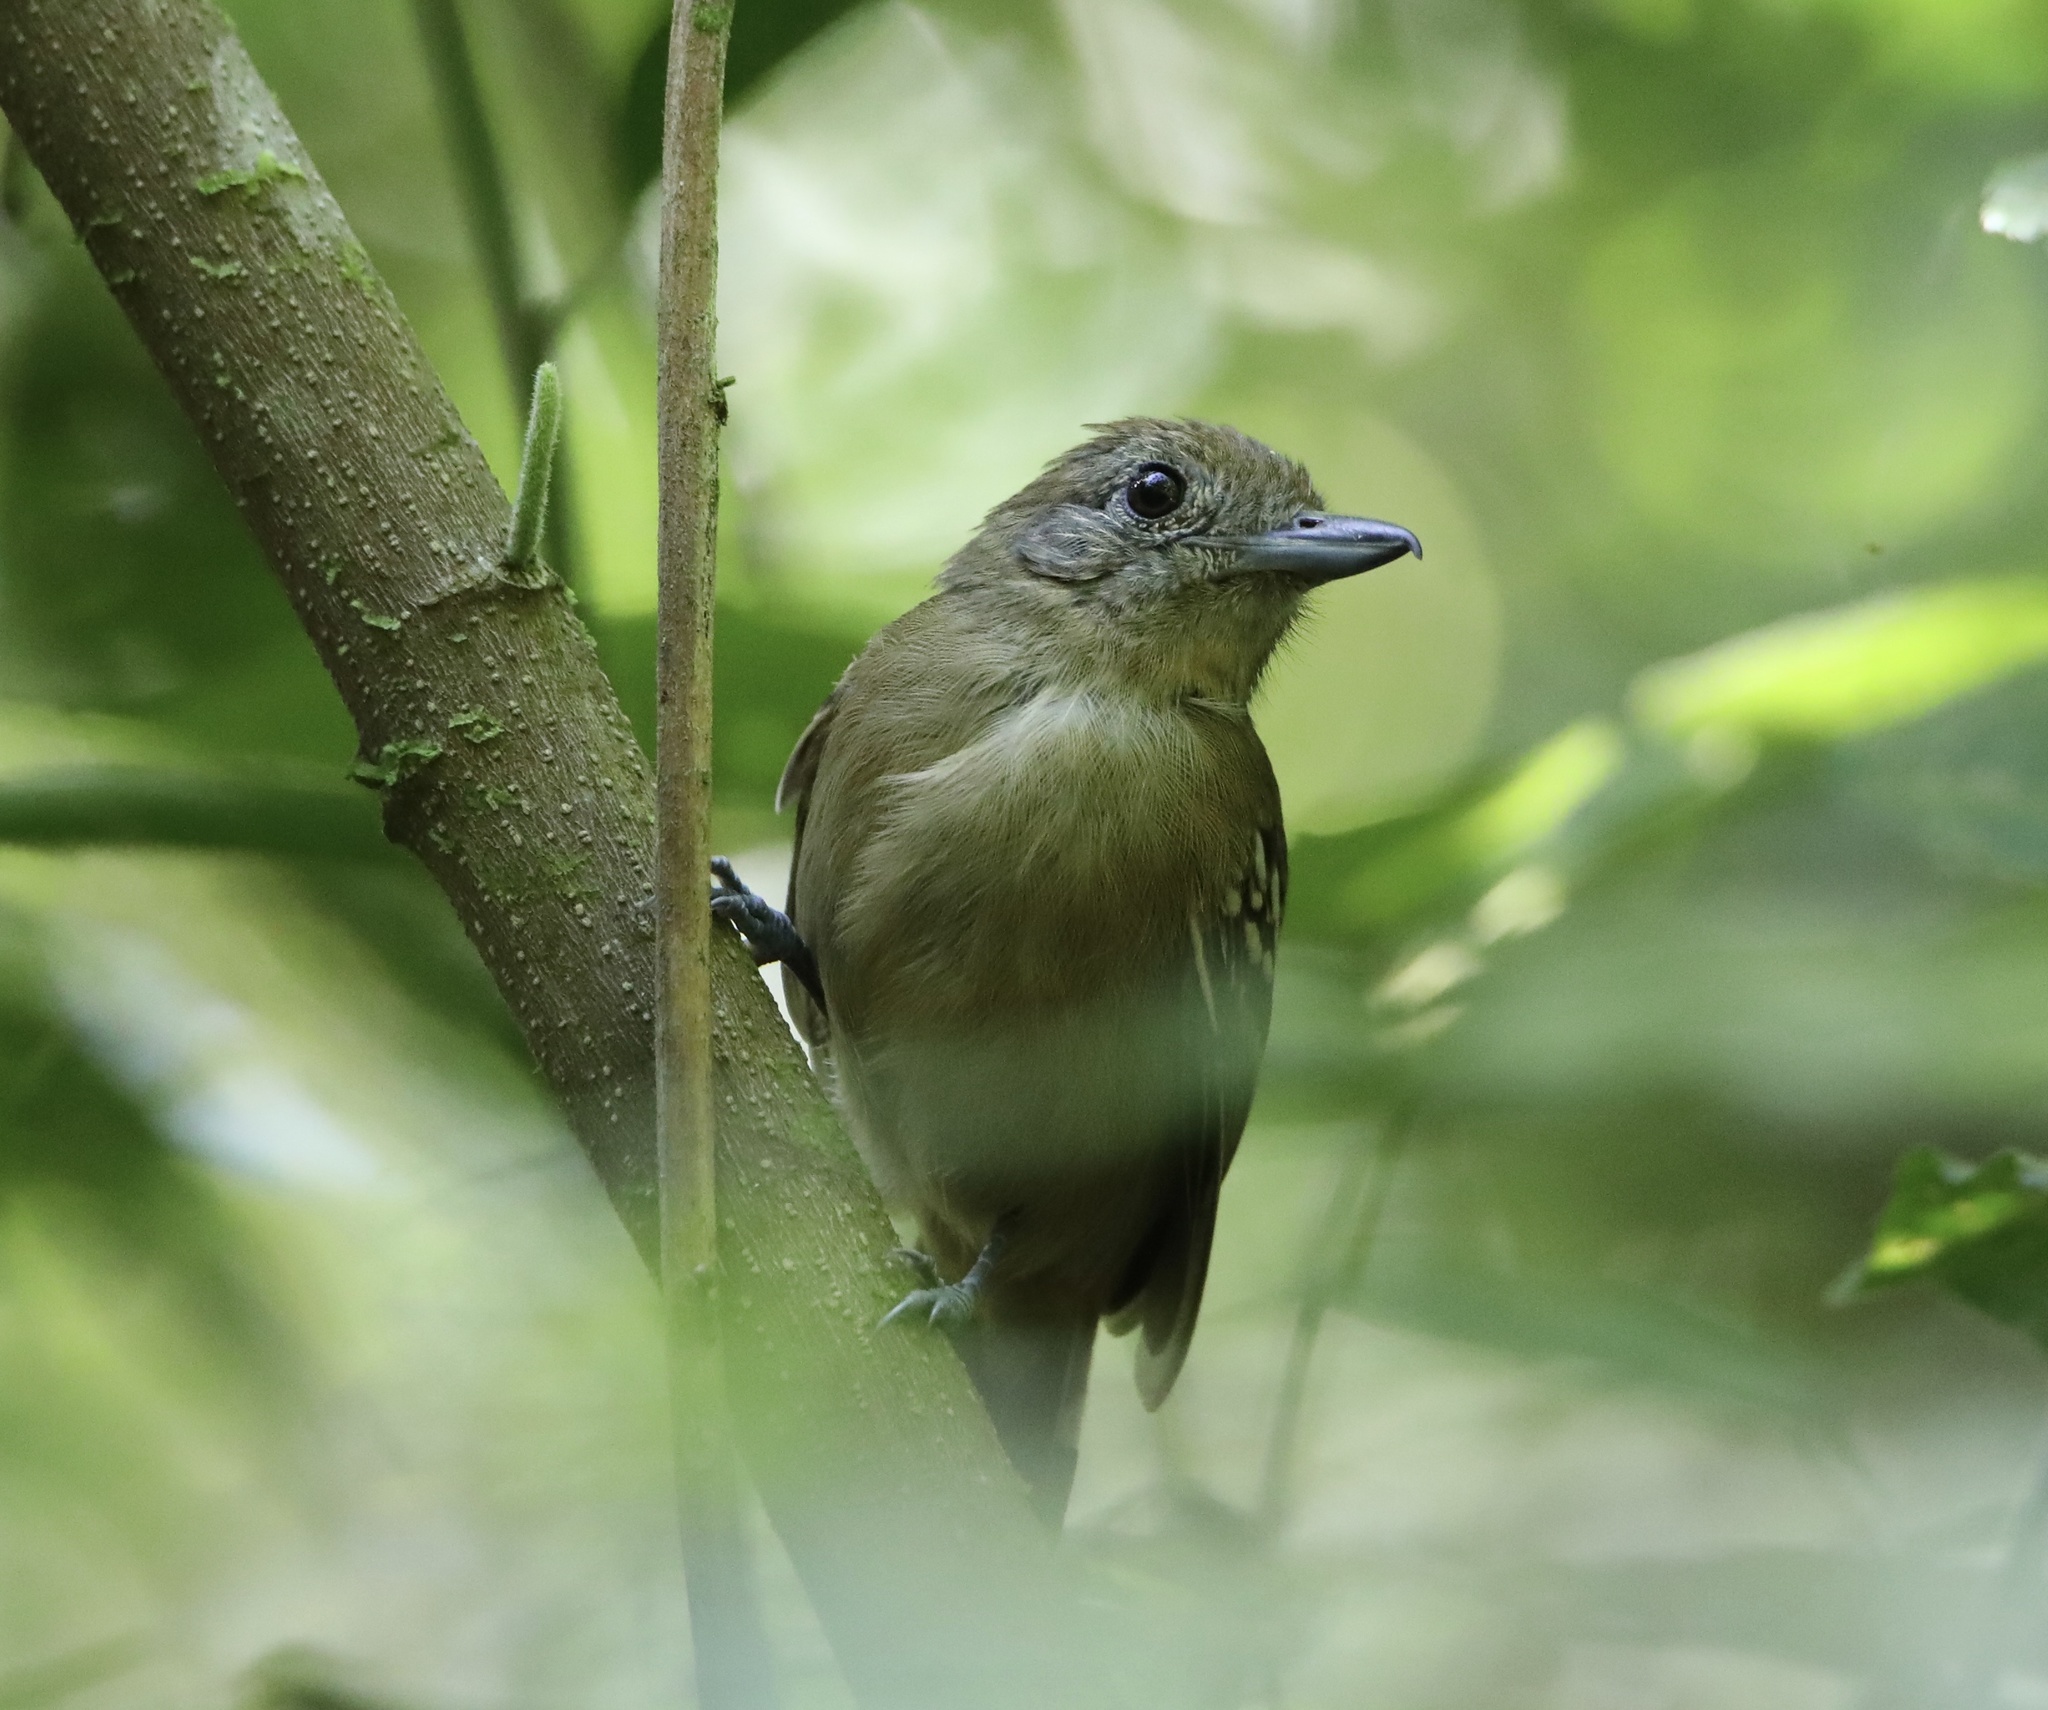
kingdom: Animalia
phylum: Chordata
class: Aves
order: Passeriformes
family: Thamnophilidae
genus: Thamnophilus
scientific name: Thamnophilus atrinucha
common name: Black-crowned antshrike
